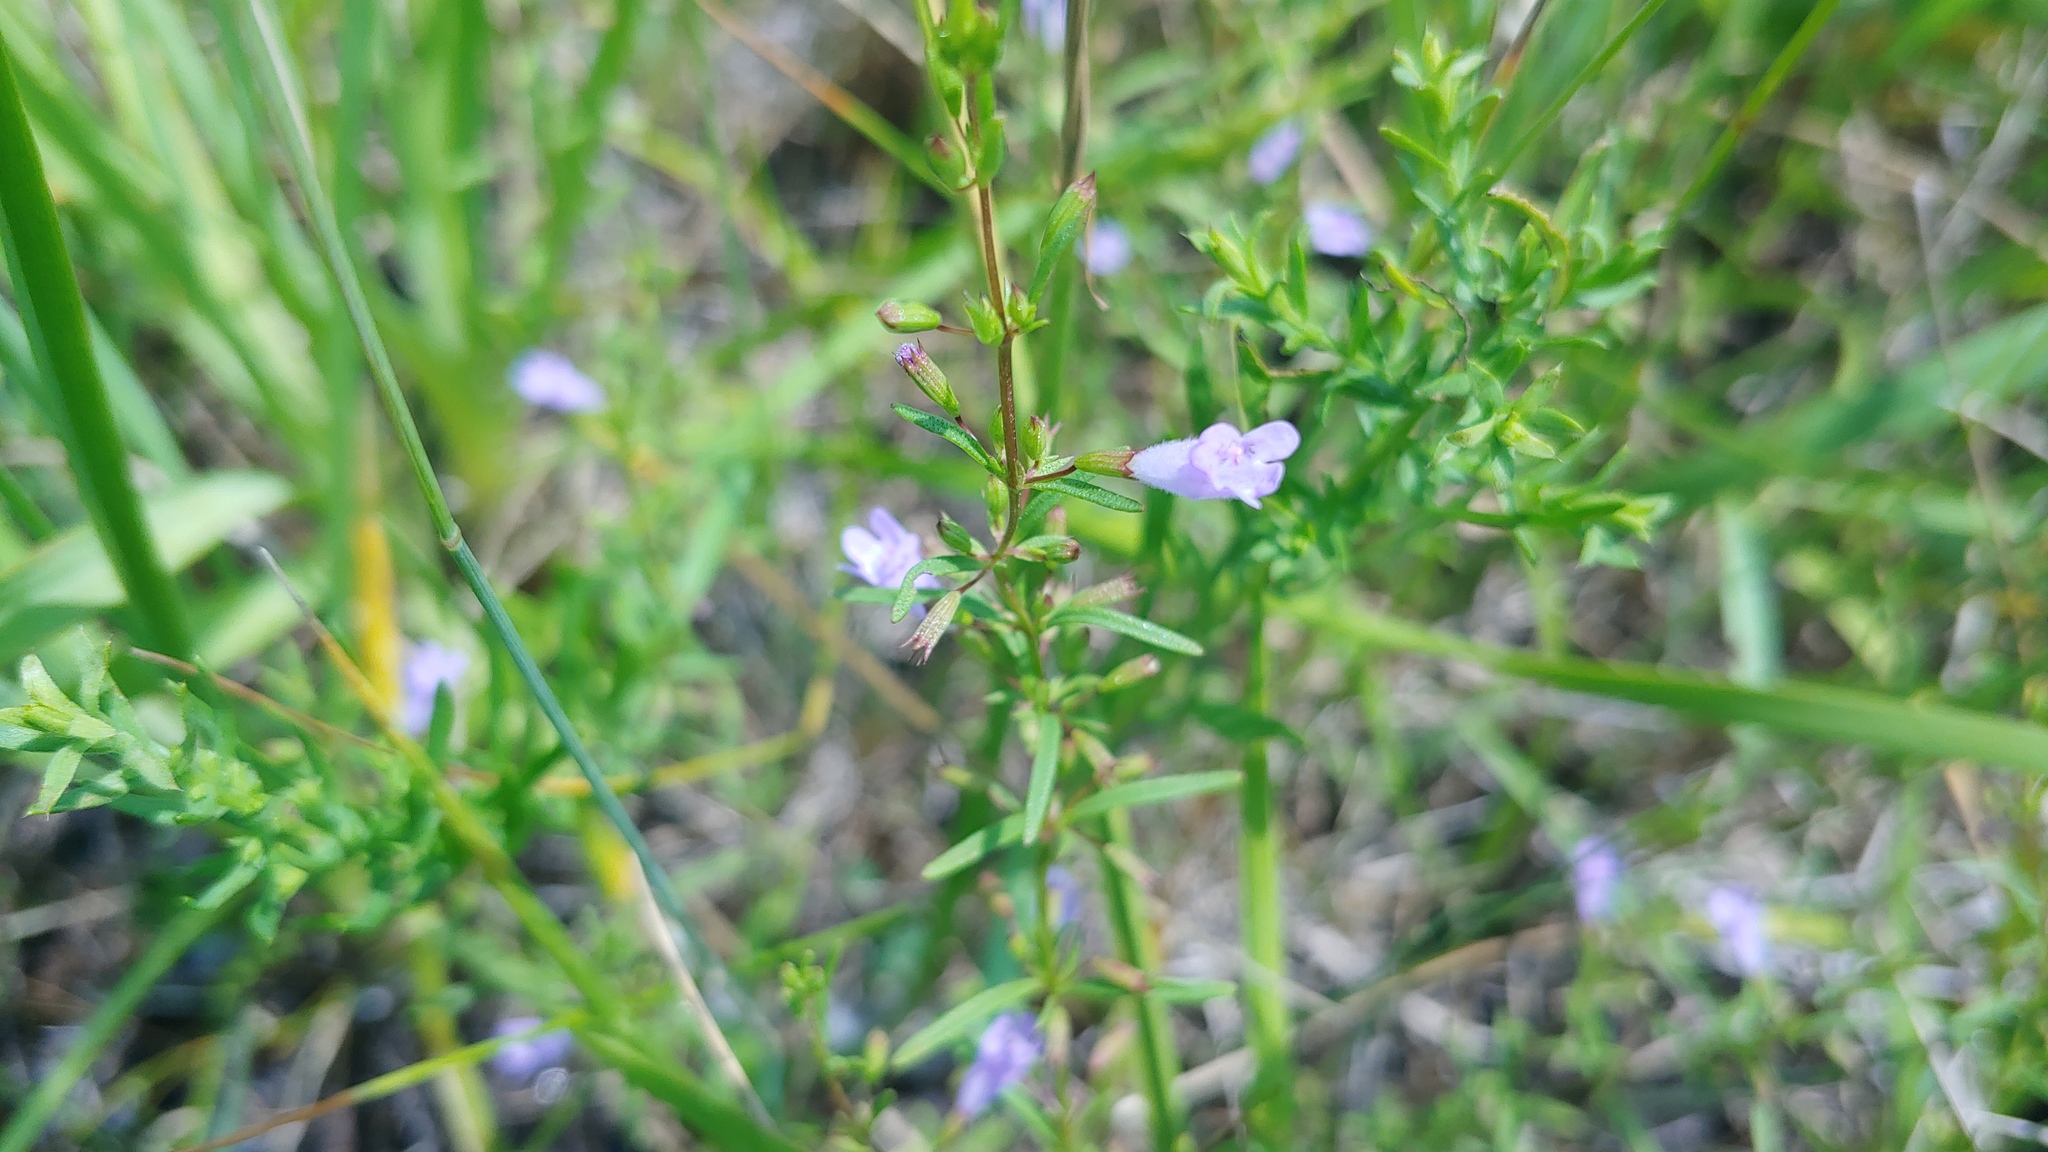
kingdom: Plantae
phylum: Tracheophyta
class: Magnoliopsida
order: Lamiales
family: Lamiaceae
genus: Clinopodium
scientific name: Clinopodium arkansanum
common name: Limestone calamint
